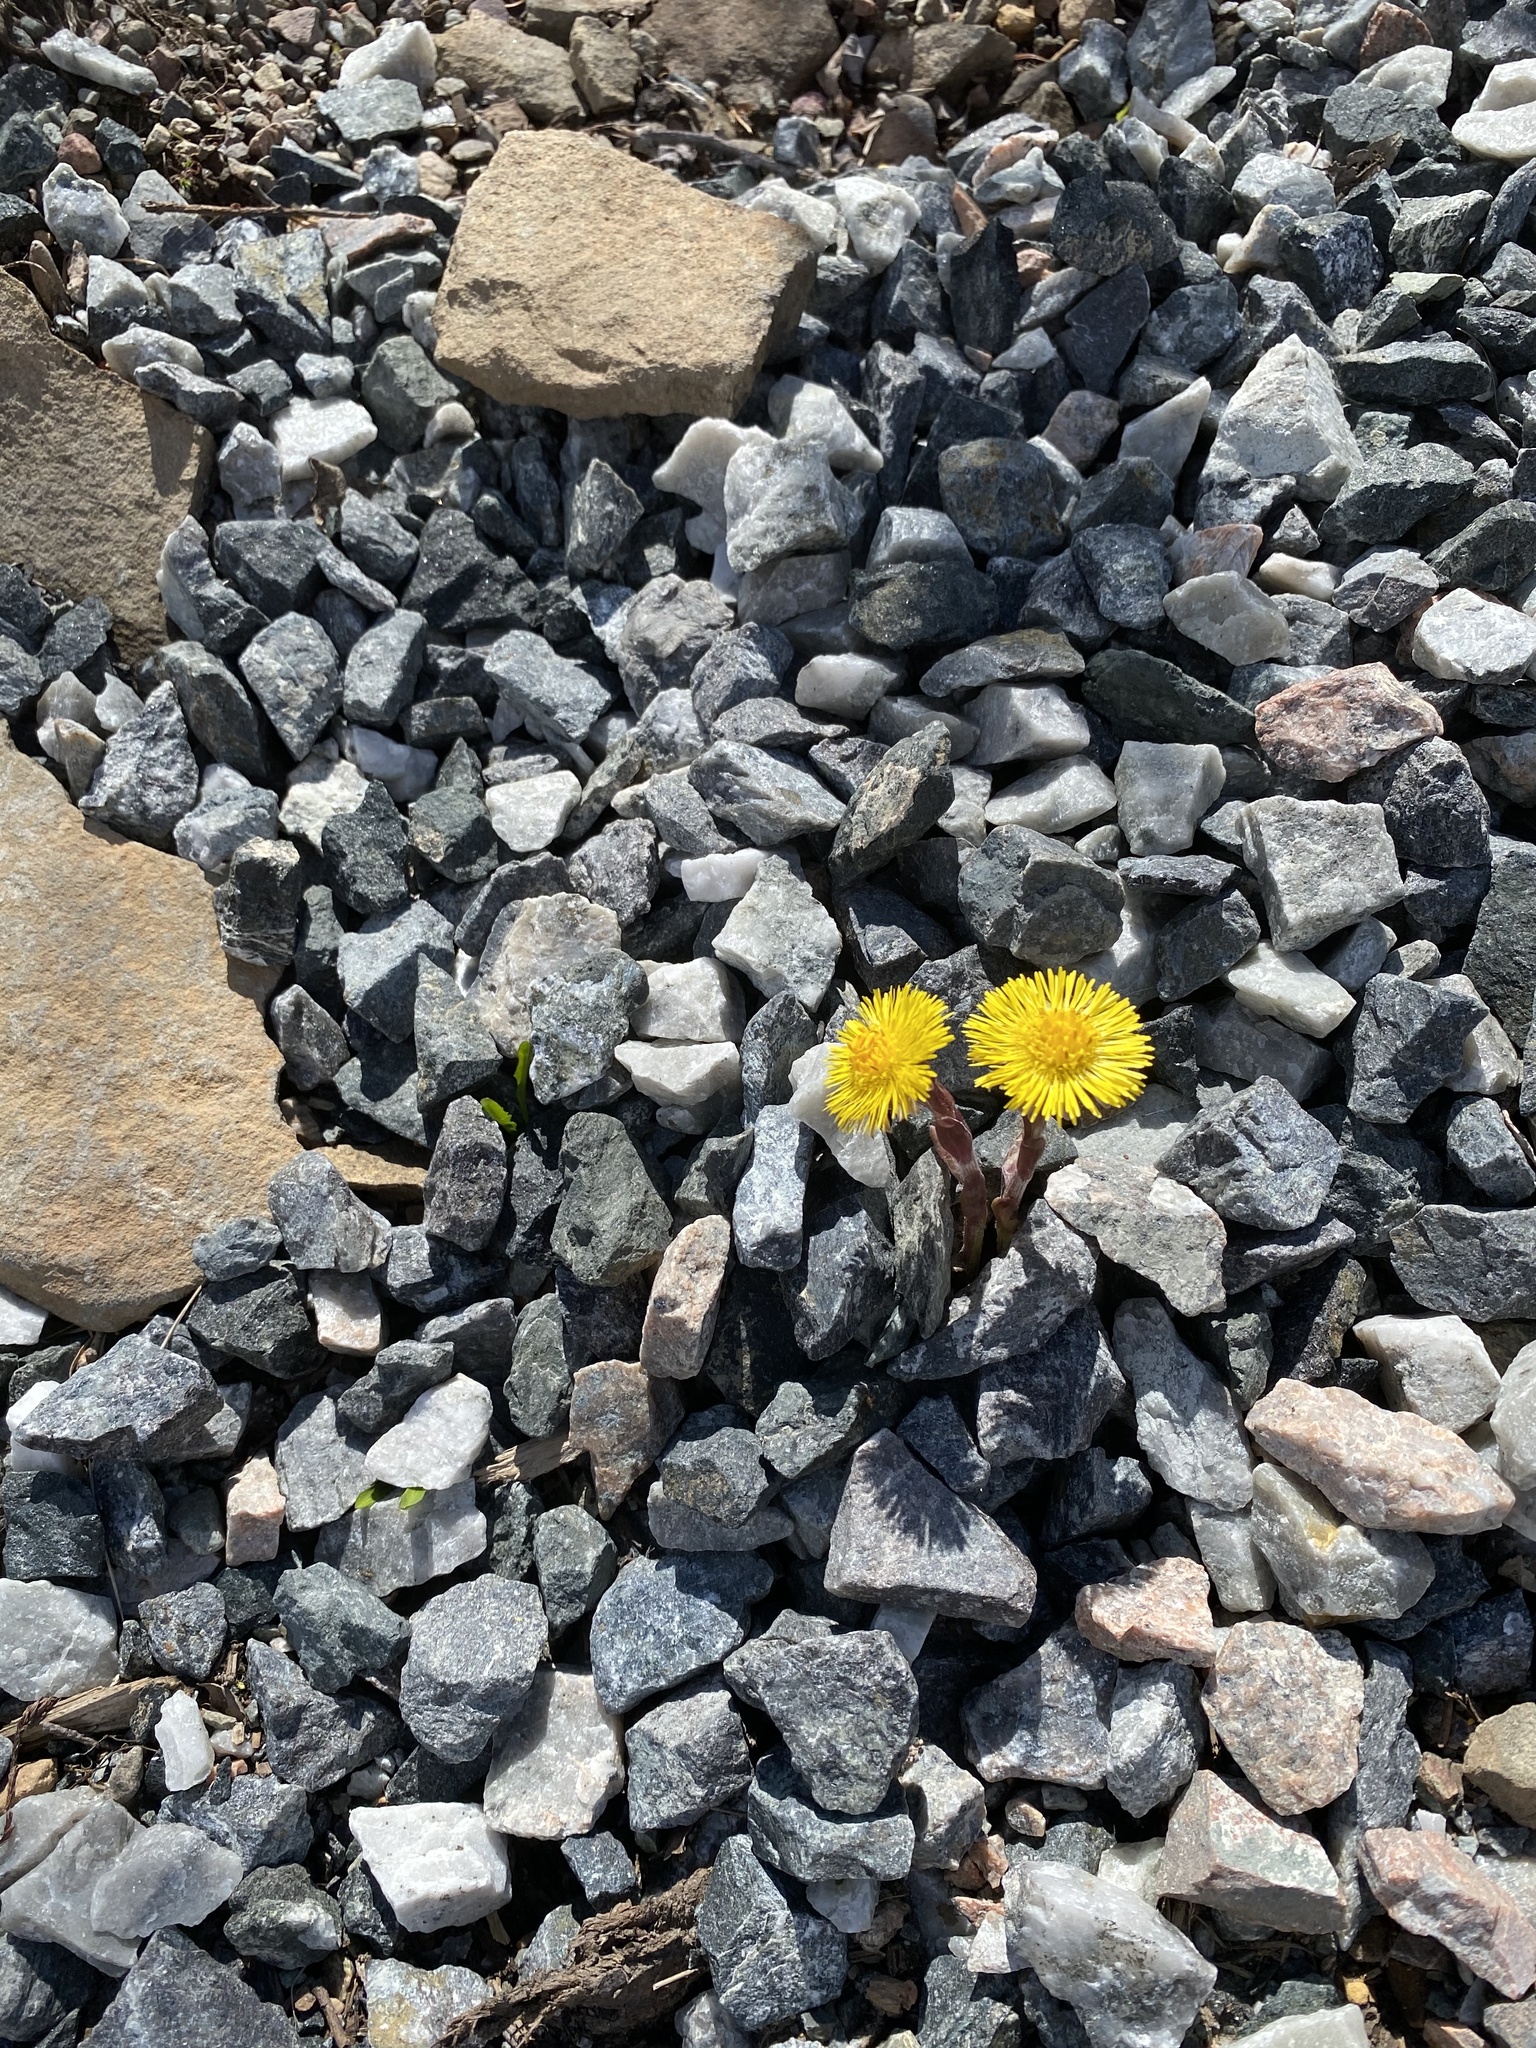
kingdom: Plantae
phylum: Tracheophyta
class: Magnoliopsida
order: Asterales
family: Asteraceae
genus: Tussilago
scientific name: Tussilago farfara
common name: Coltsfoot
